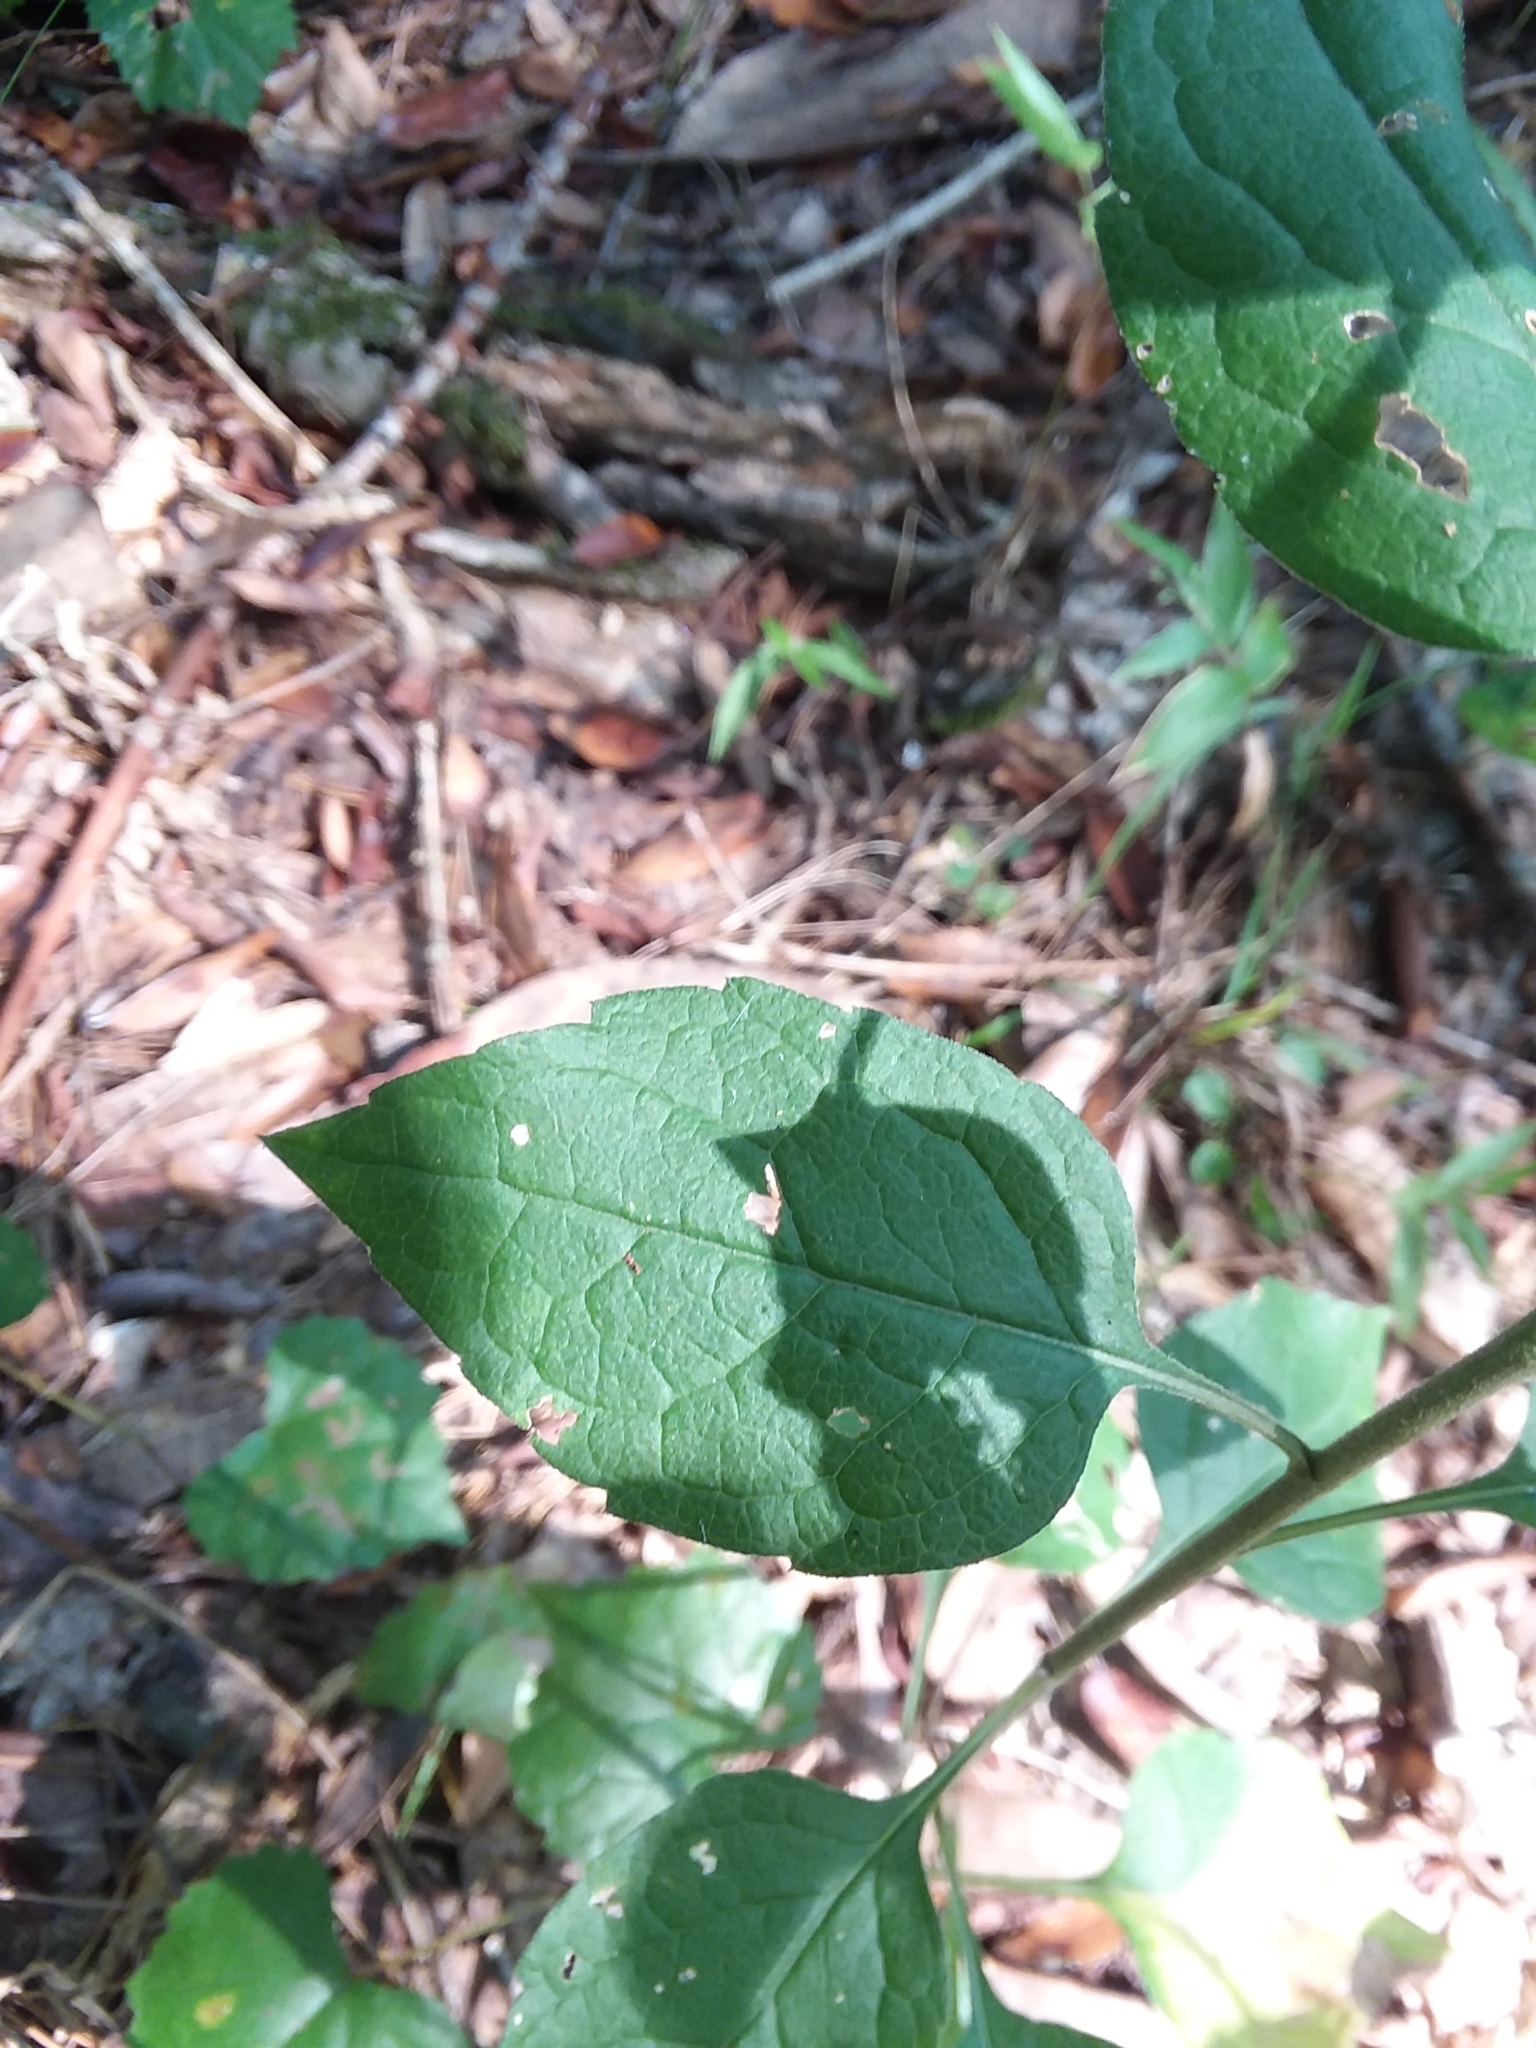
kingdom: Plantae
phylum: Tracheophyta
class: Magnoliopsida
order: Asterales
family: Asteraceae
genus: Solidago
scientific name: Solidago discoidea
